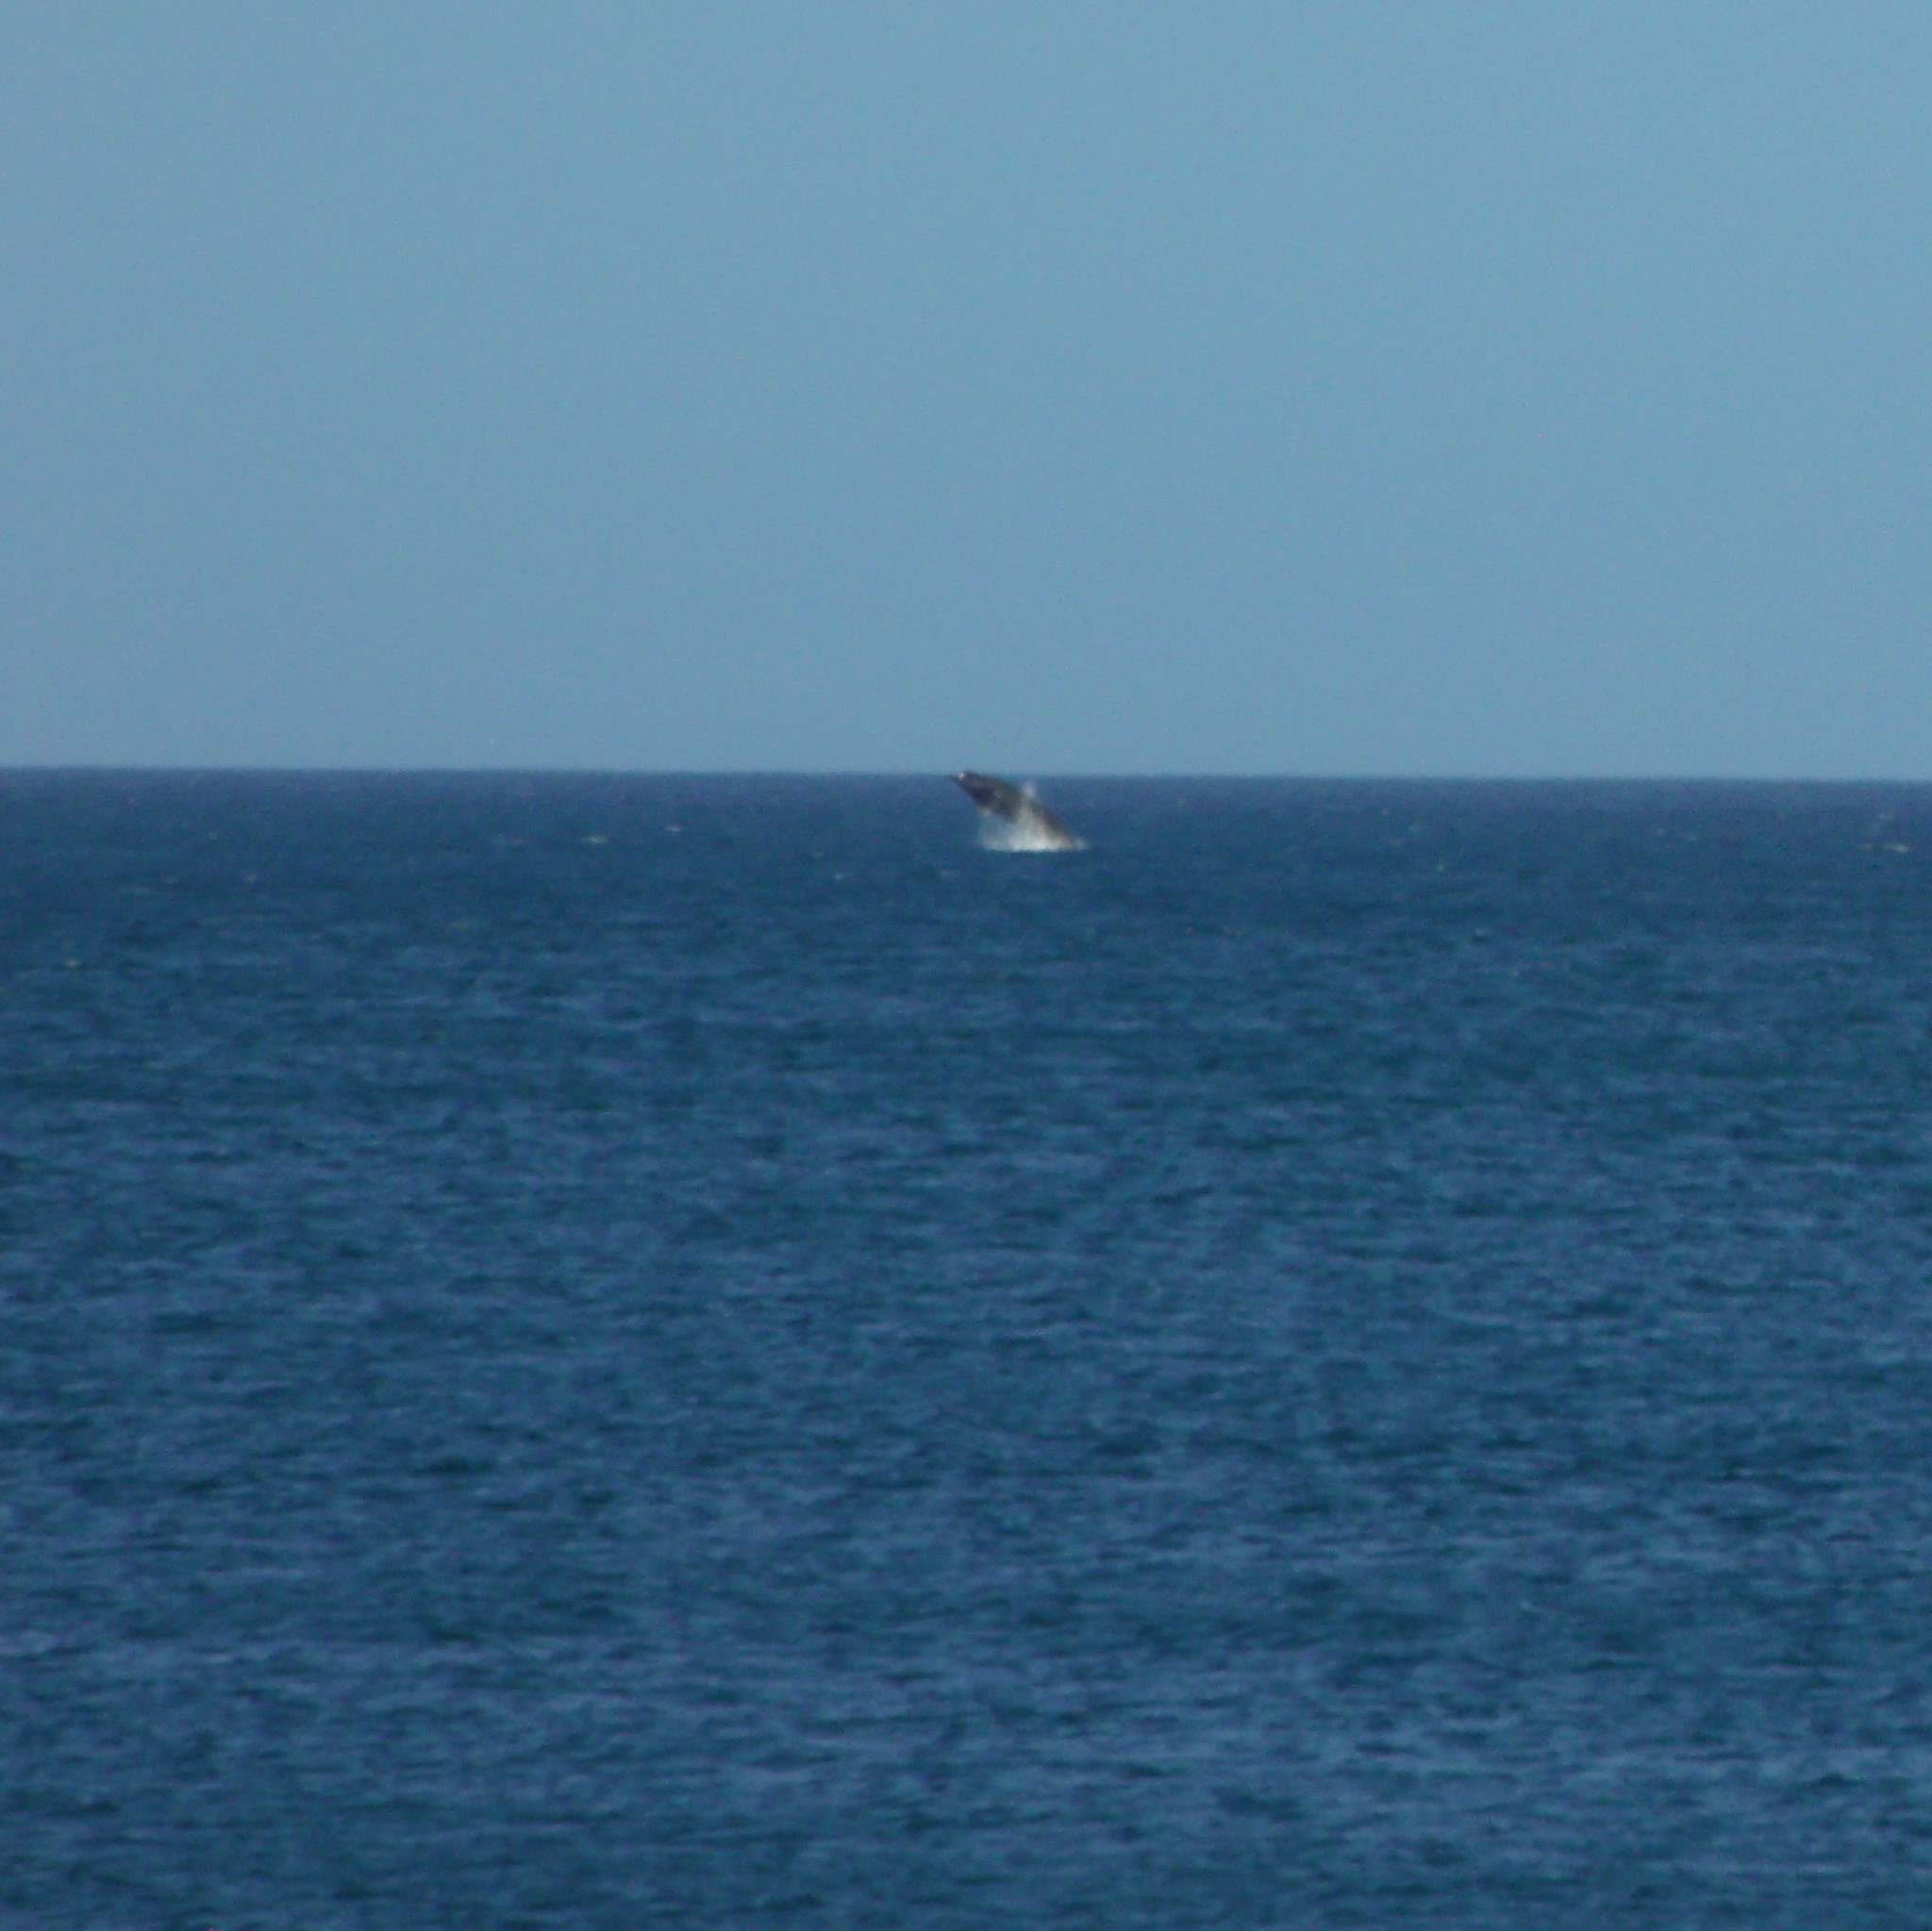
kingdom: Animalia
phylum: Chordata
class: Mammalia
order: Cetacea
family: Hyperoodontidae
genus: Berardius
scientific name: Berardius arnuxii
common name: Arnoux's beaked whale
